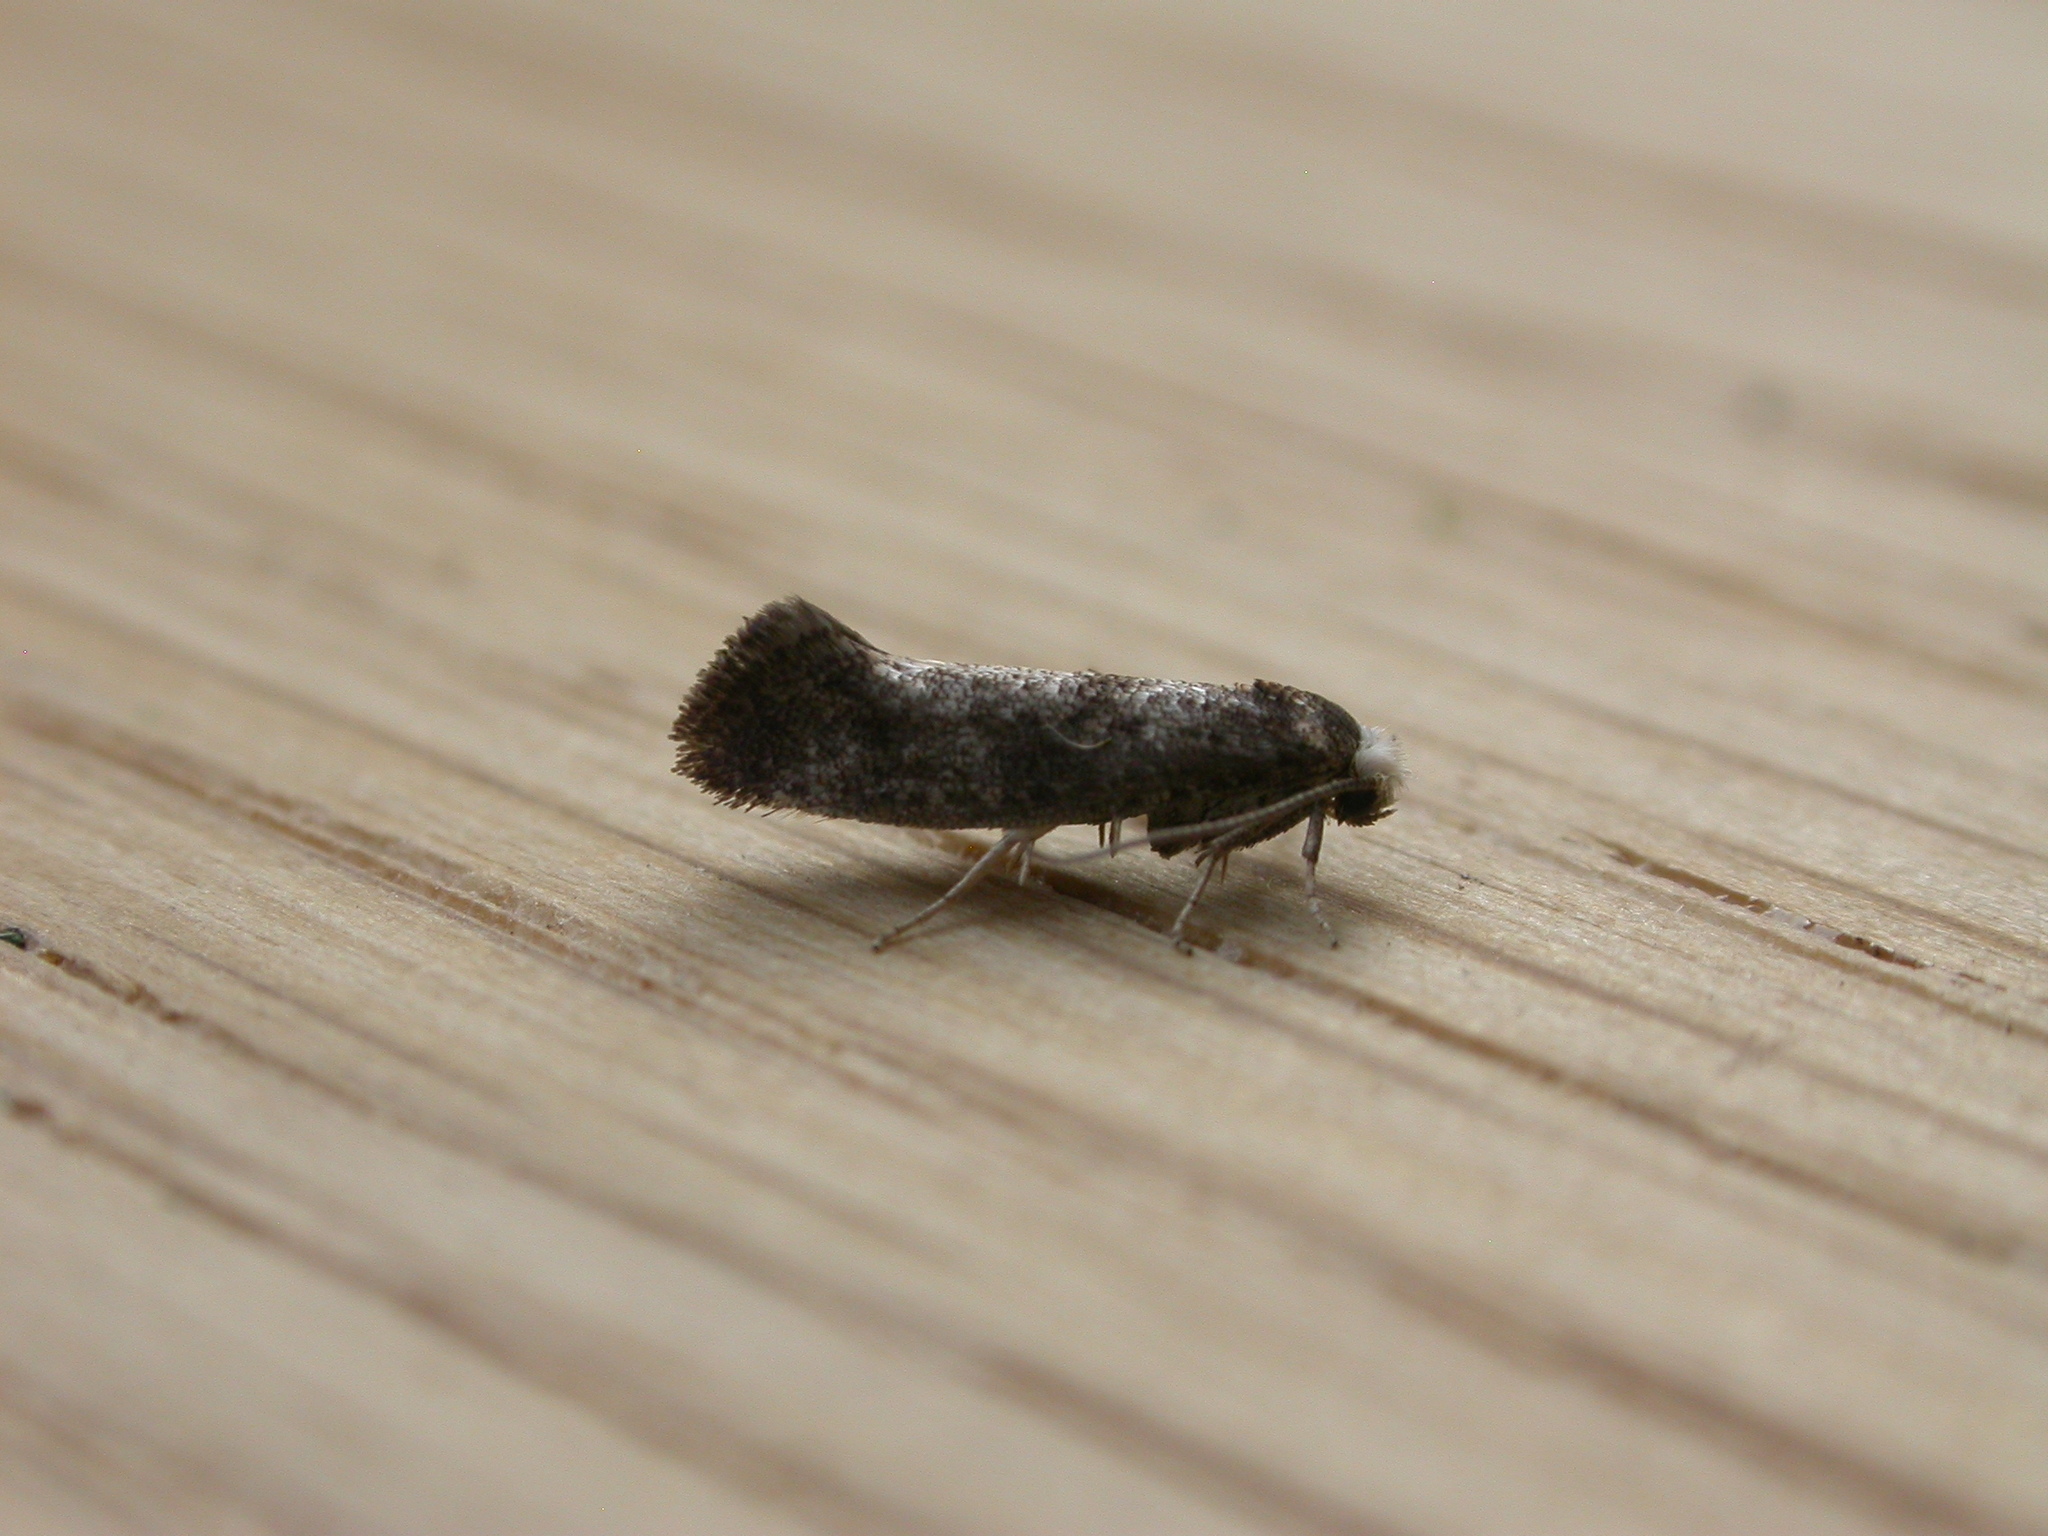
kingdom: Animalia
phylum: Arthropoda
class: Insecta
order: Lepidoptera
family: Yponomeutidae
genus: Swammerdamia
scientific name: Swammerdamia pyrella
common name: Little ermine moth
